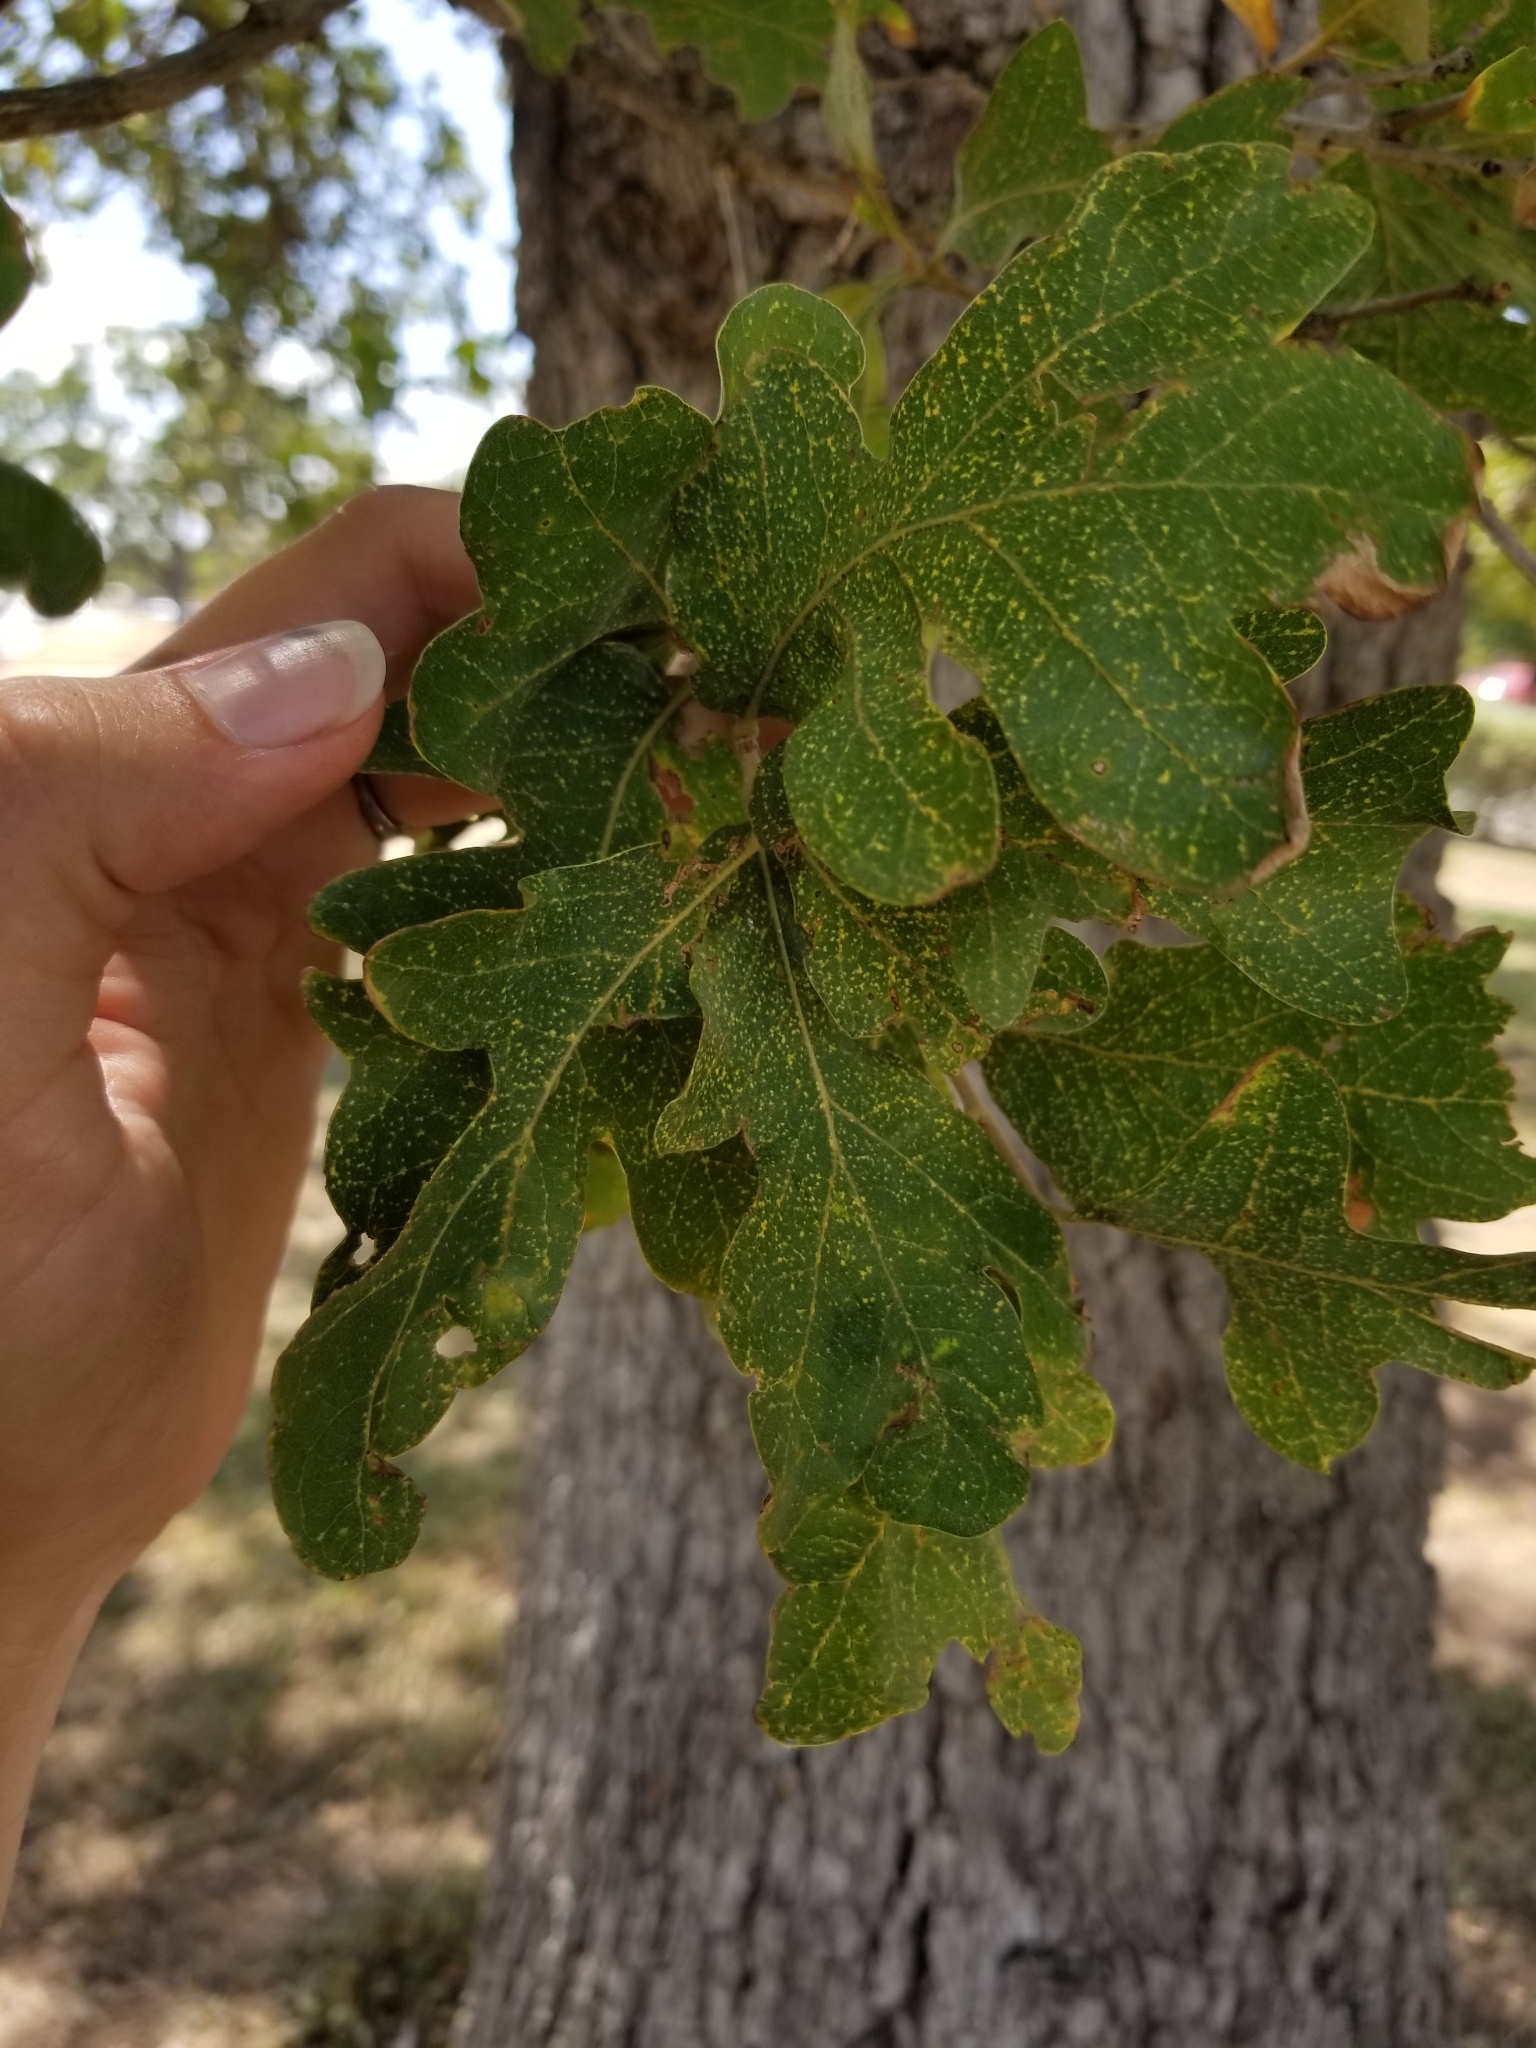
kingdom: Plantae
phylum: Tracheophyta
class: Magnoliopsida
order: Fagales
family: Fagaceae
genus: Quercus
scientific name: Quercus stellata
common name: Post oak
